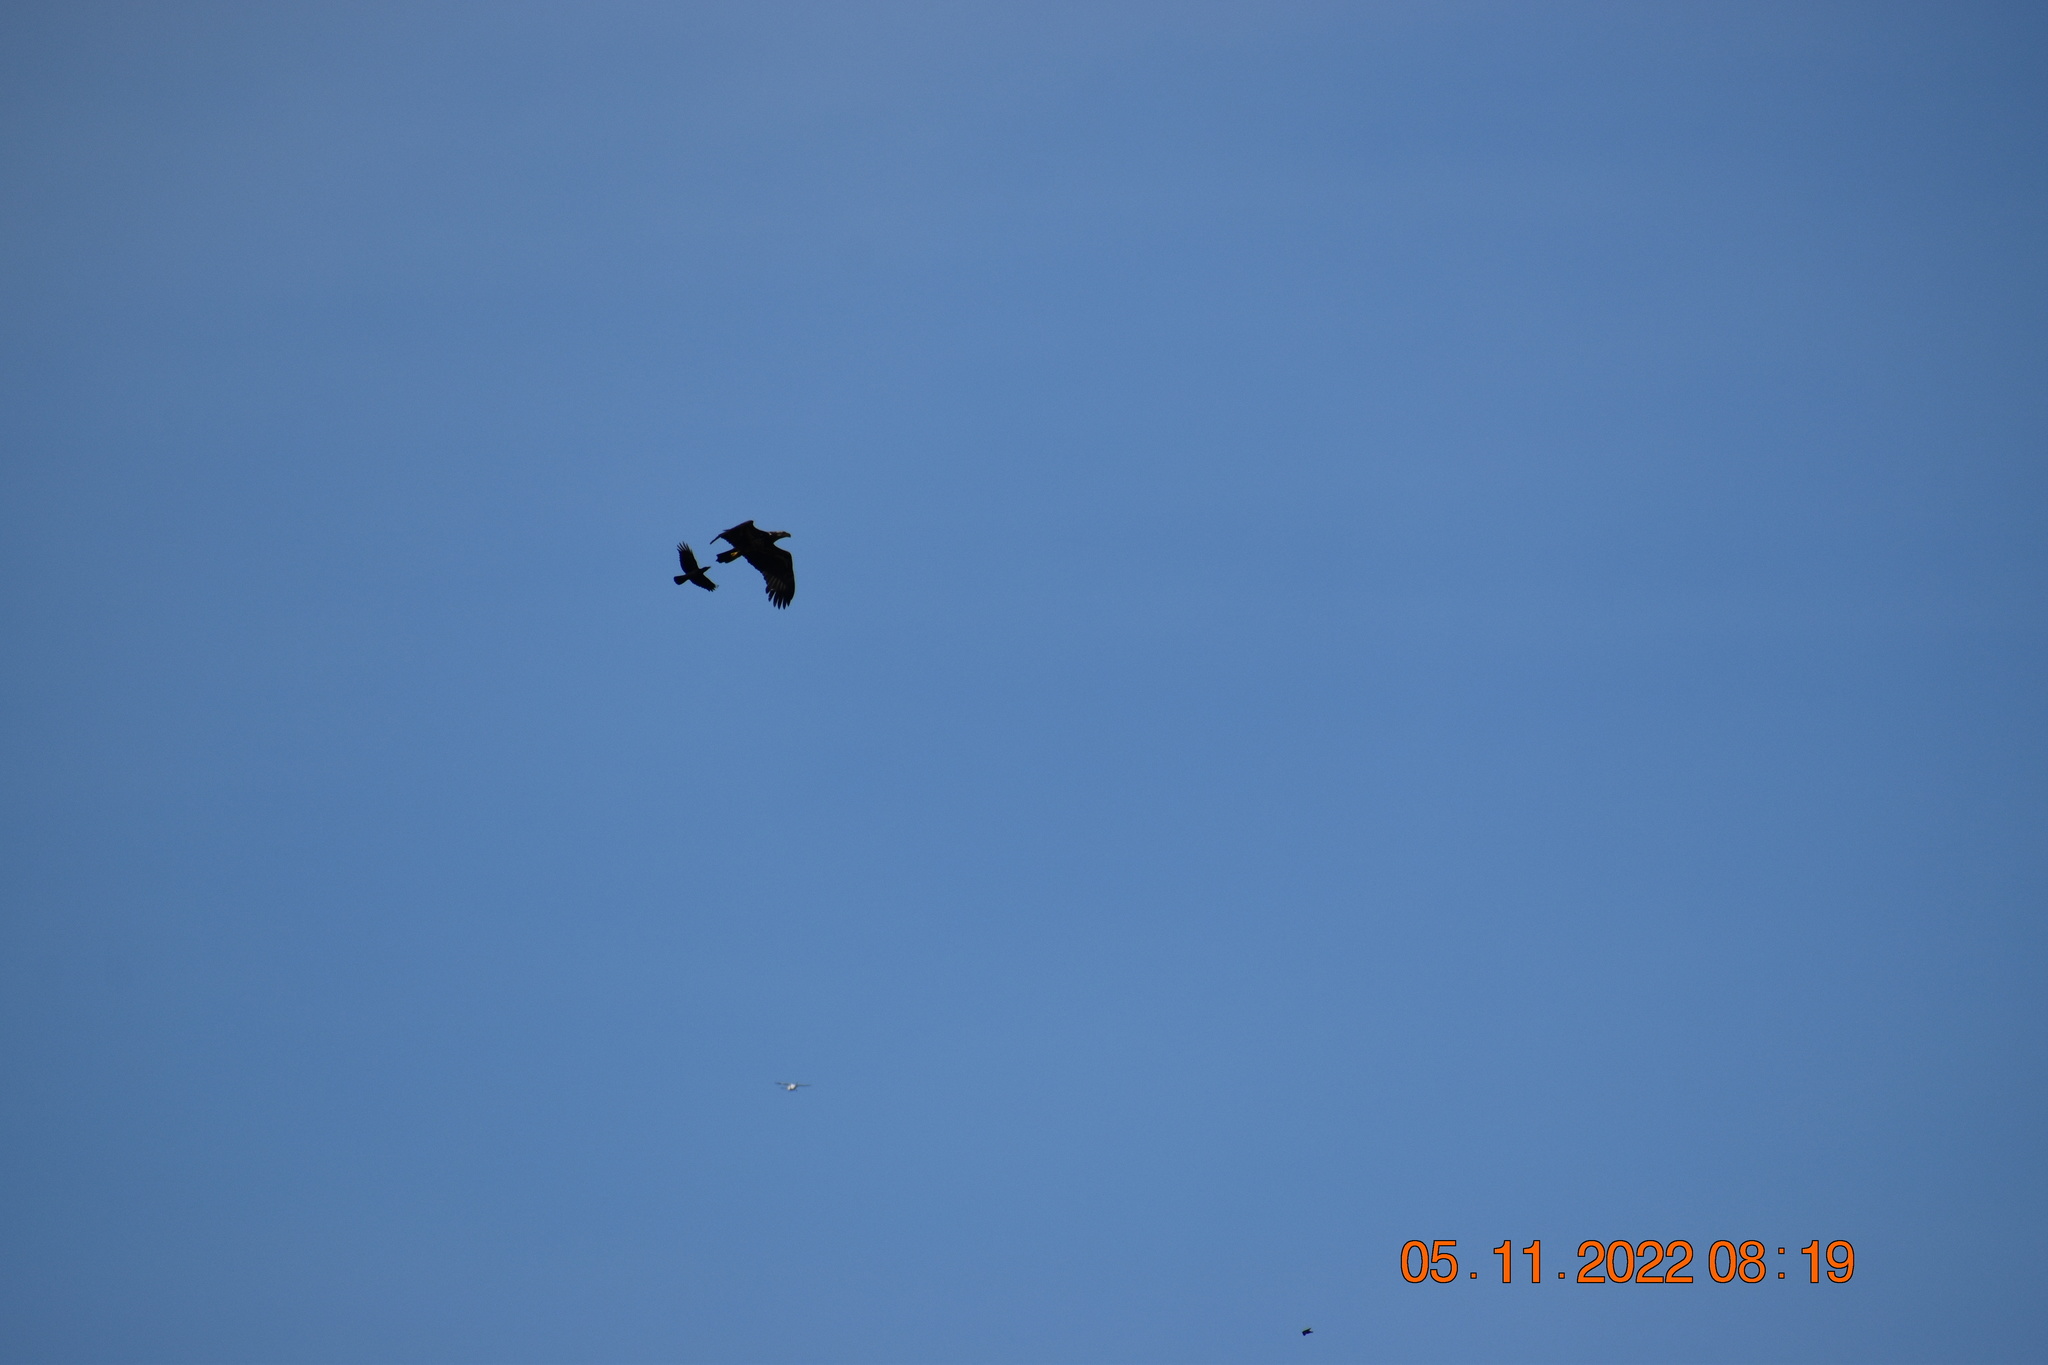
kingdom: Animalia
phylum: Chordata
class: Aves
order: Accipitriformes
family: Accipitridae
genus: Haliaeetus
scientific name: Haliaeetus leucocephalus
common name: Bald eagle
